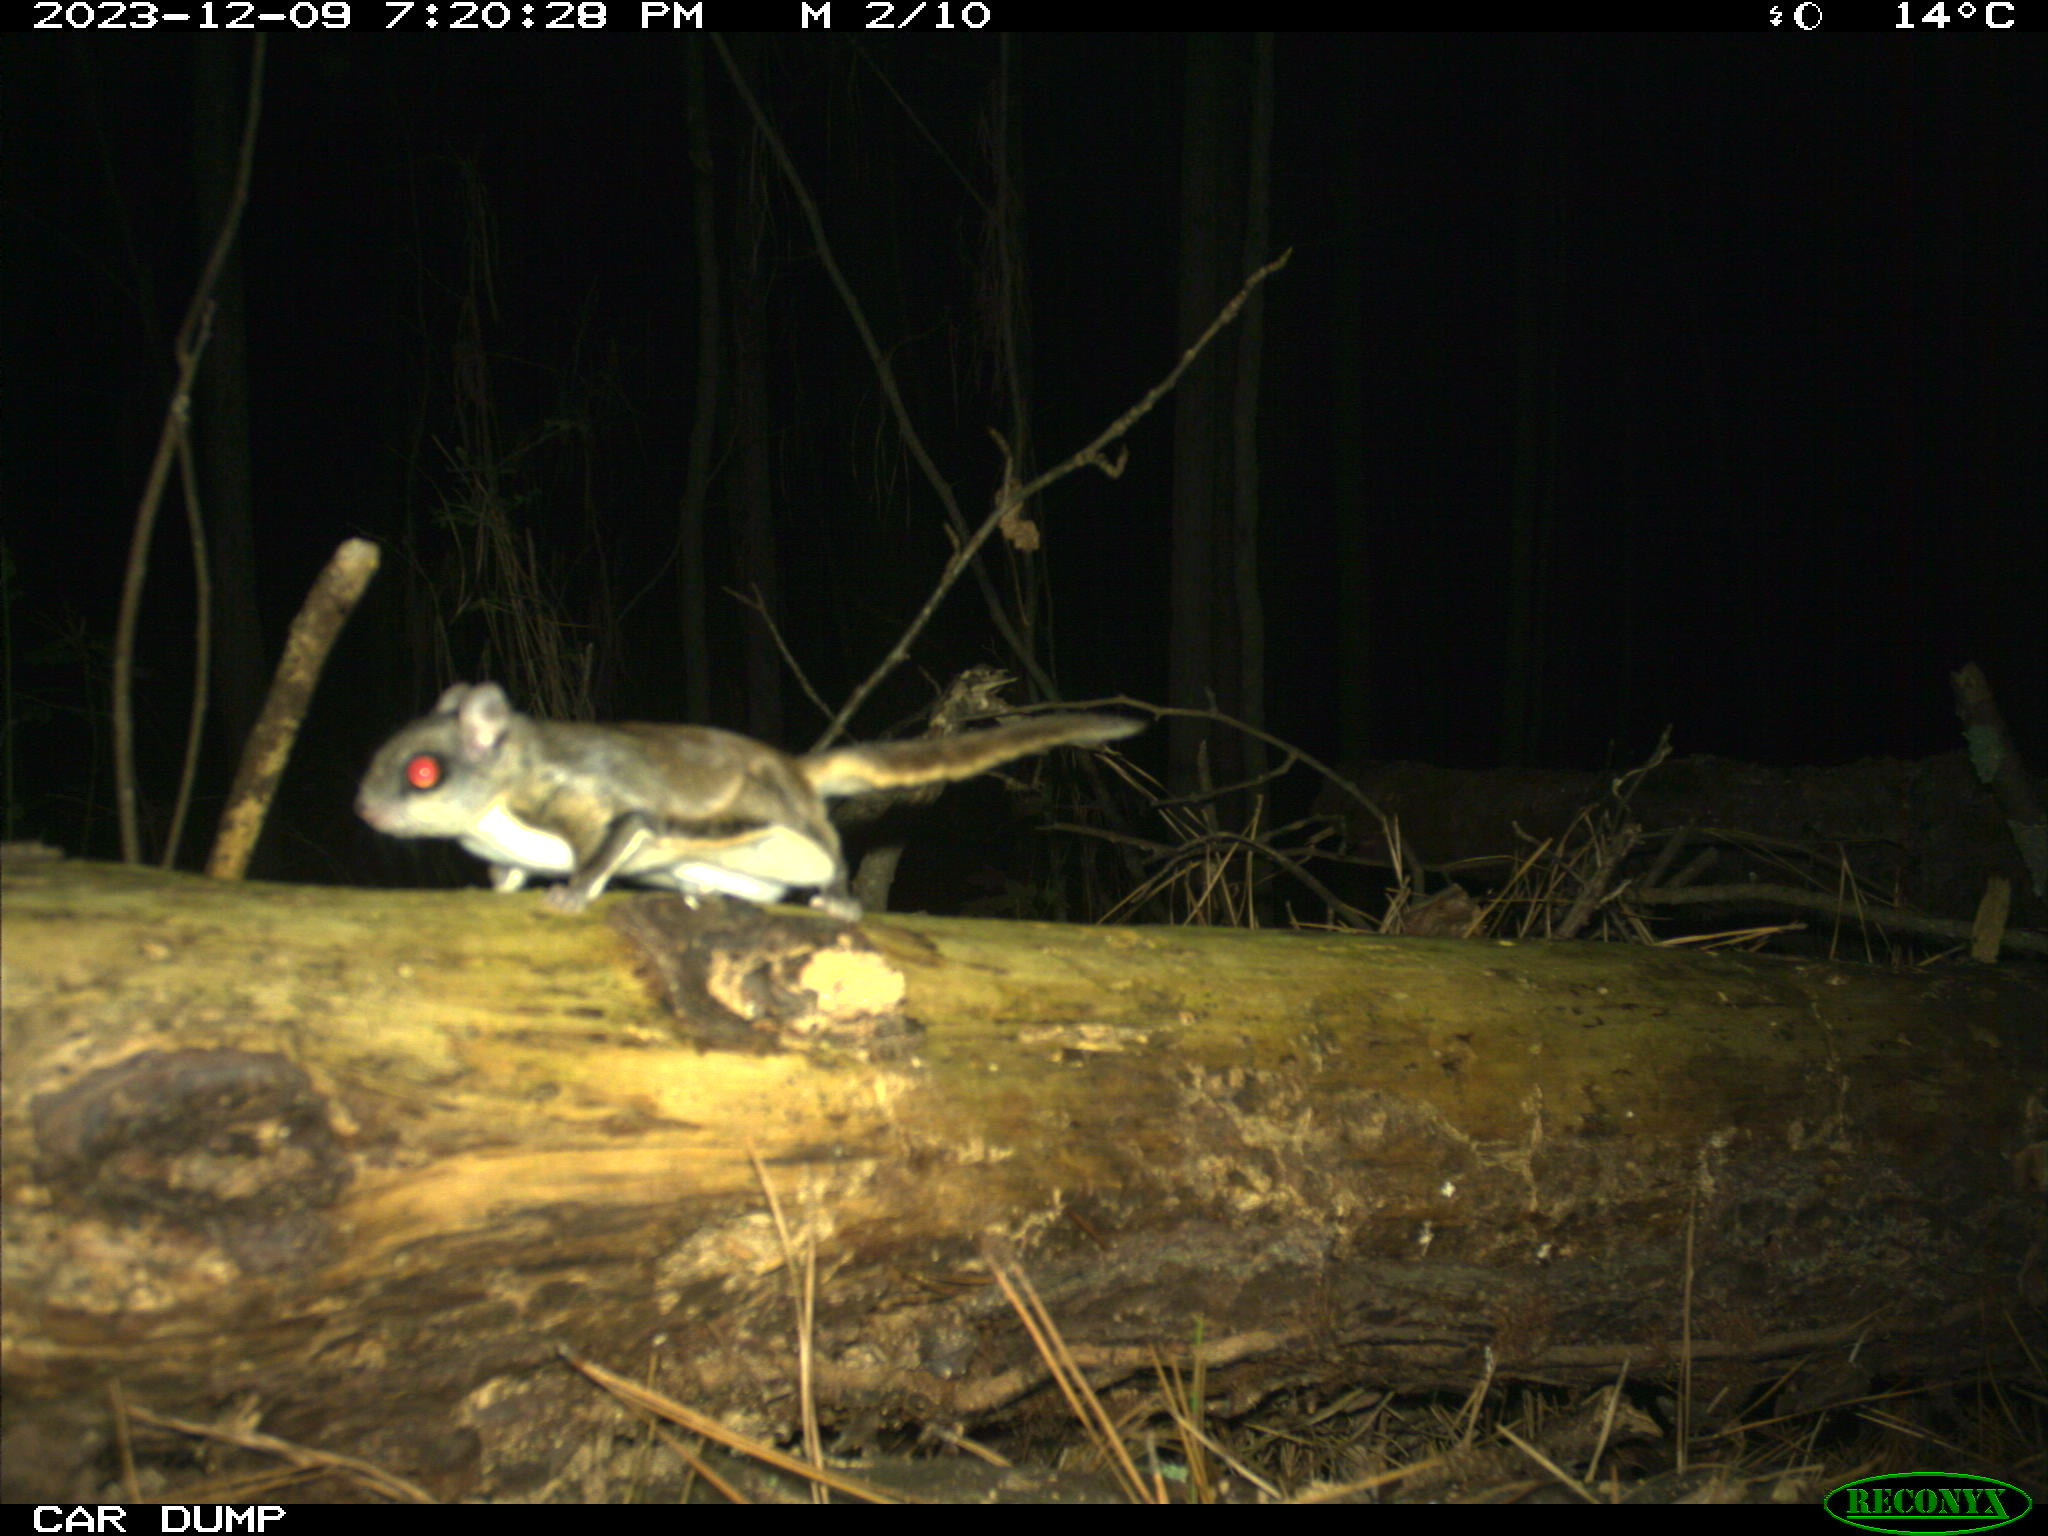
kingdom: Animalia
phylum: Chordata
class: Mammalia
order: Rodentia
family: Sciuridae
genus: Glaucomys
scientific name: Glaucomys volans
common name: Southern flying squirrel
